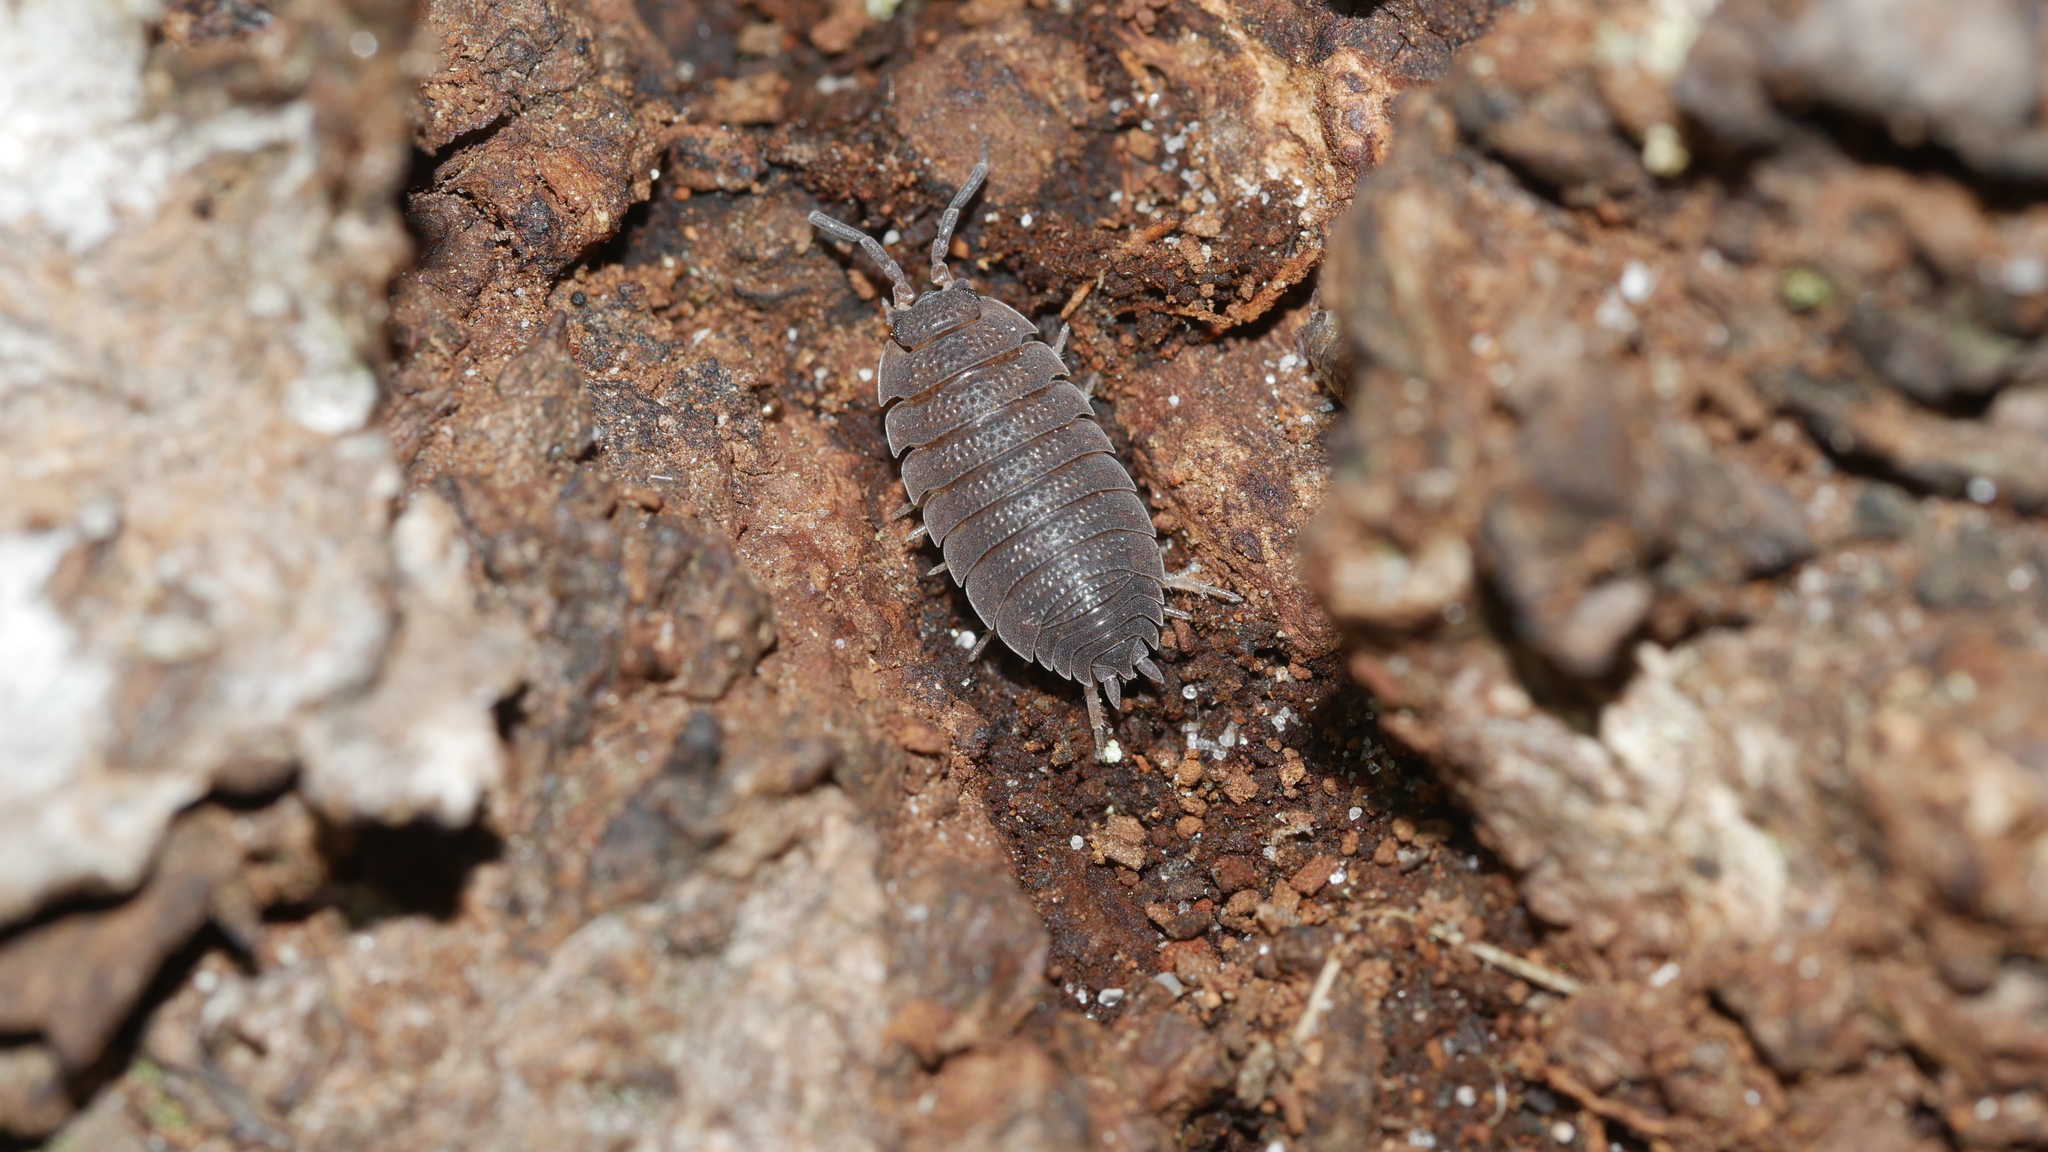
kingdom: Animalia
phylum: Arthropoda
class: Malacostraca
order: Isopoda
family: Porcellionidae
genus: Porcellio
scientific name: Porcellio scaber
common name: Common rough woodlouse
